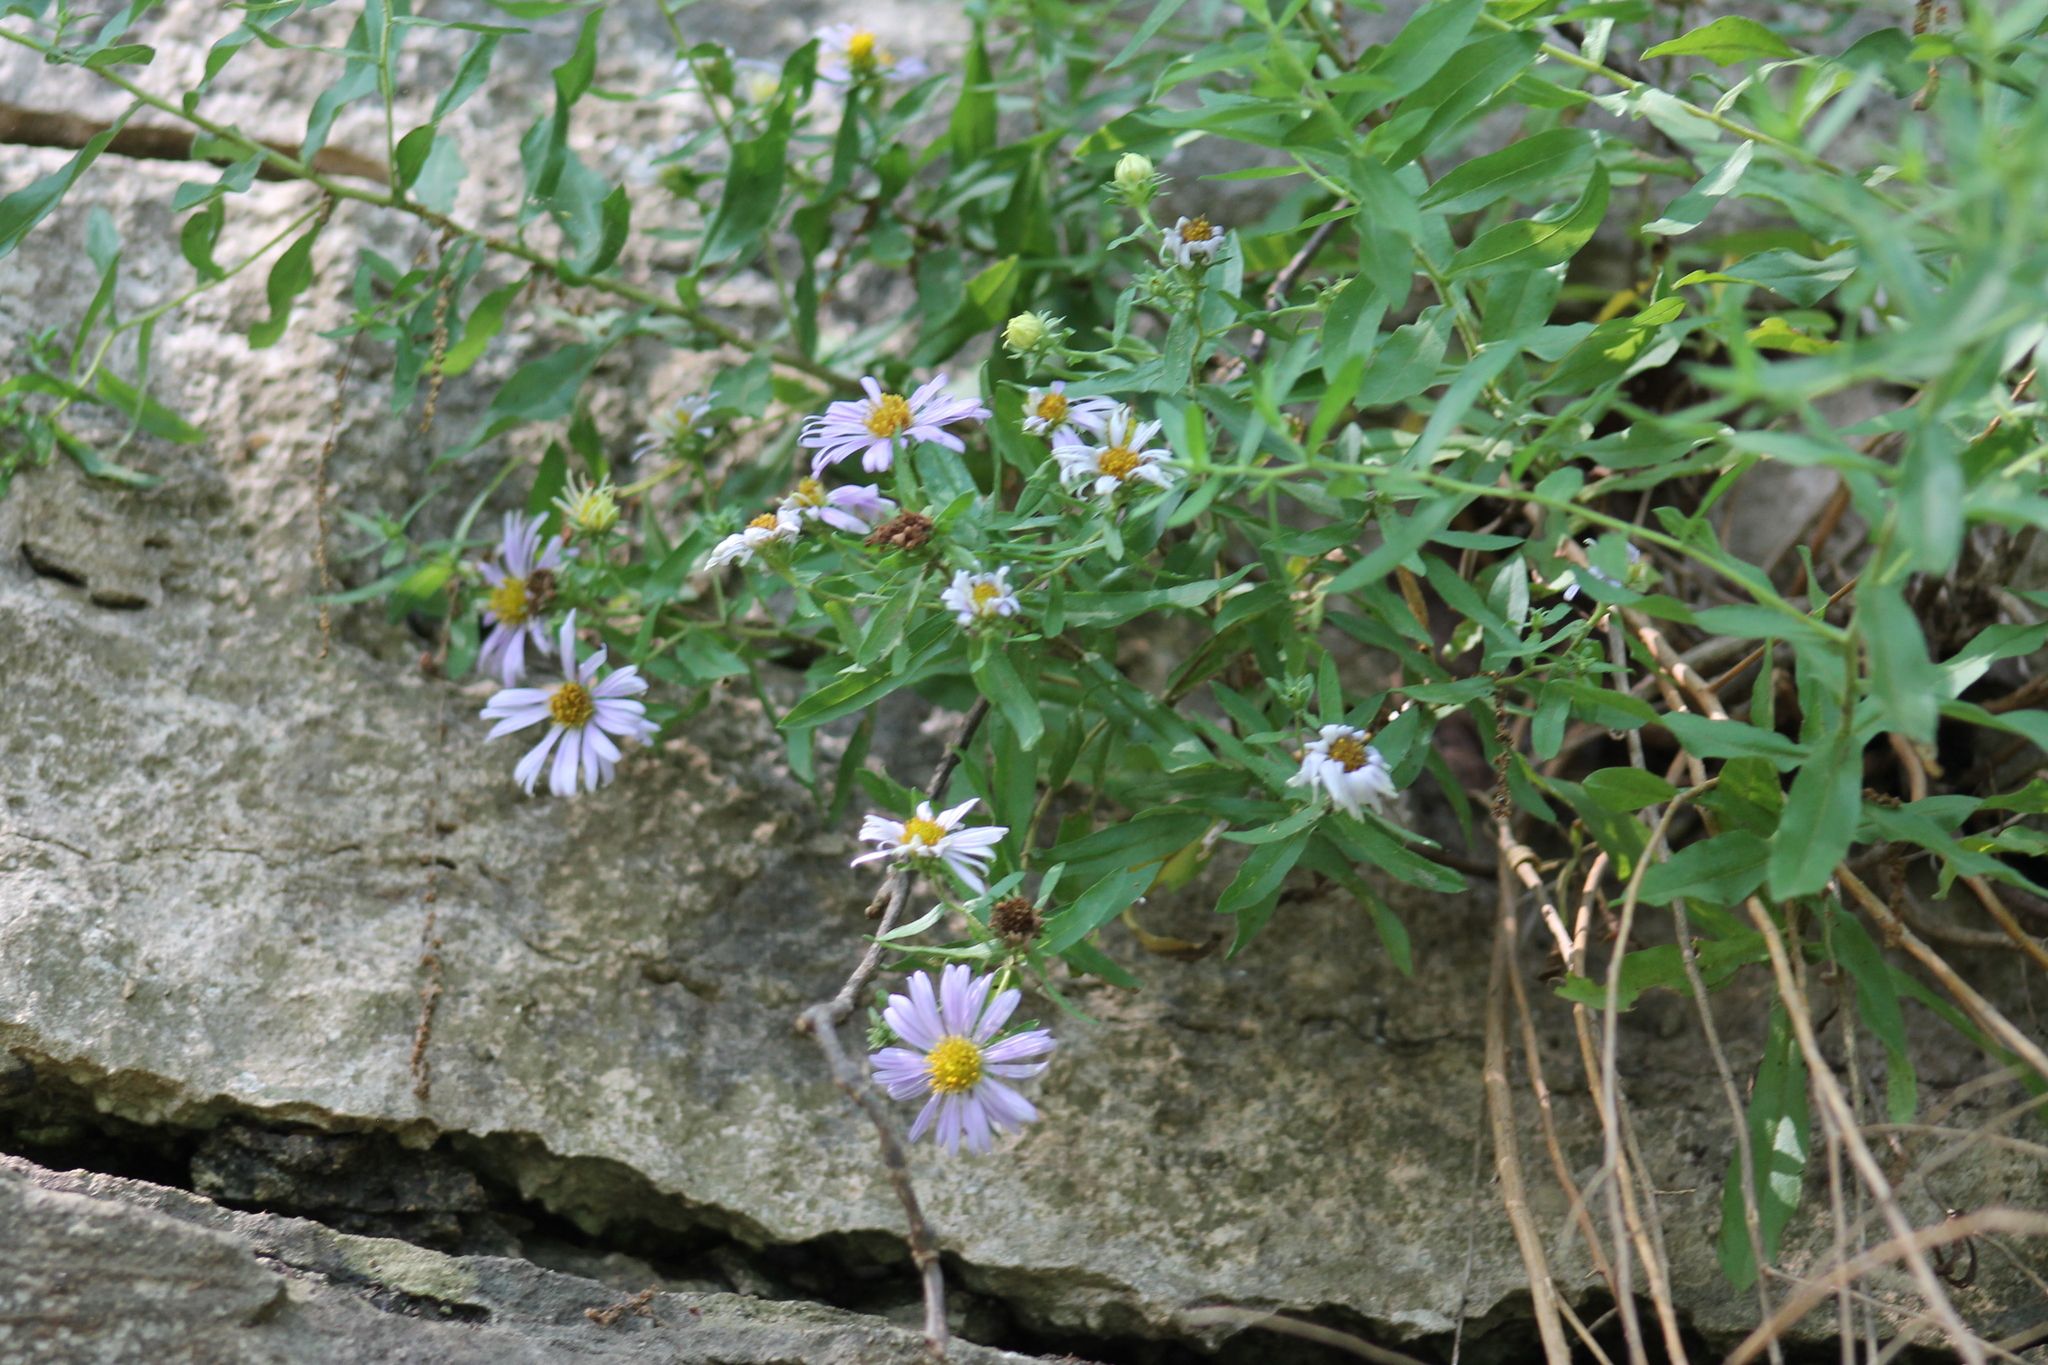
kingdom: Plantae
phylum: Tracheophyta
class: Magnoliopsida
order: Asterales
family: Asteraceae
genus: Symphyotrichum
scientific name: Symphyotrichum oblongifolium
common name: Aromatic aster
